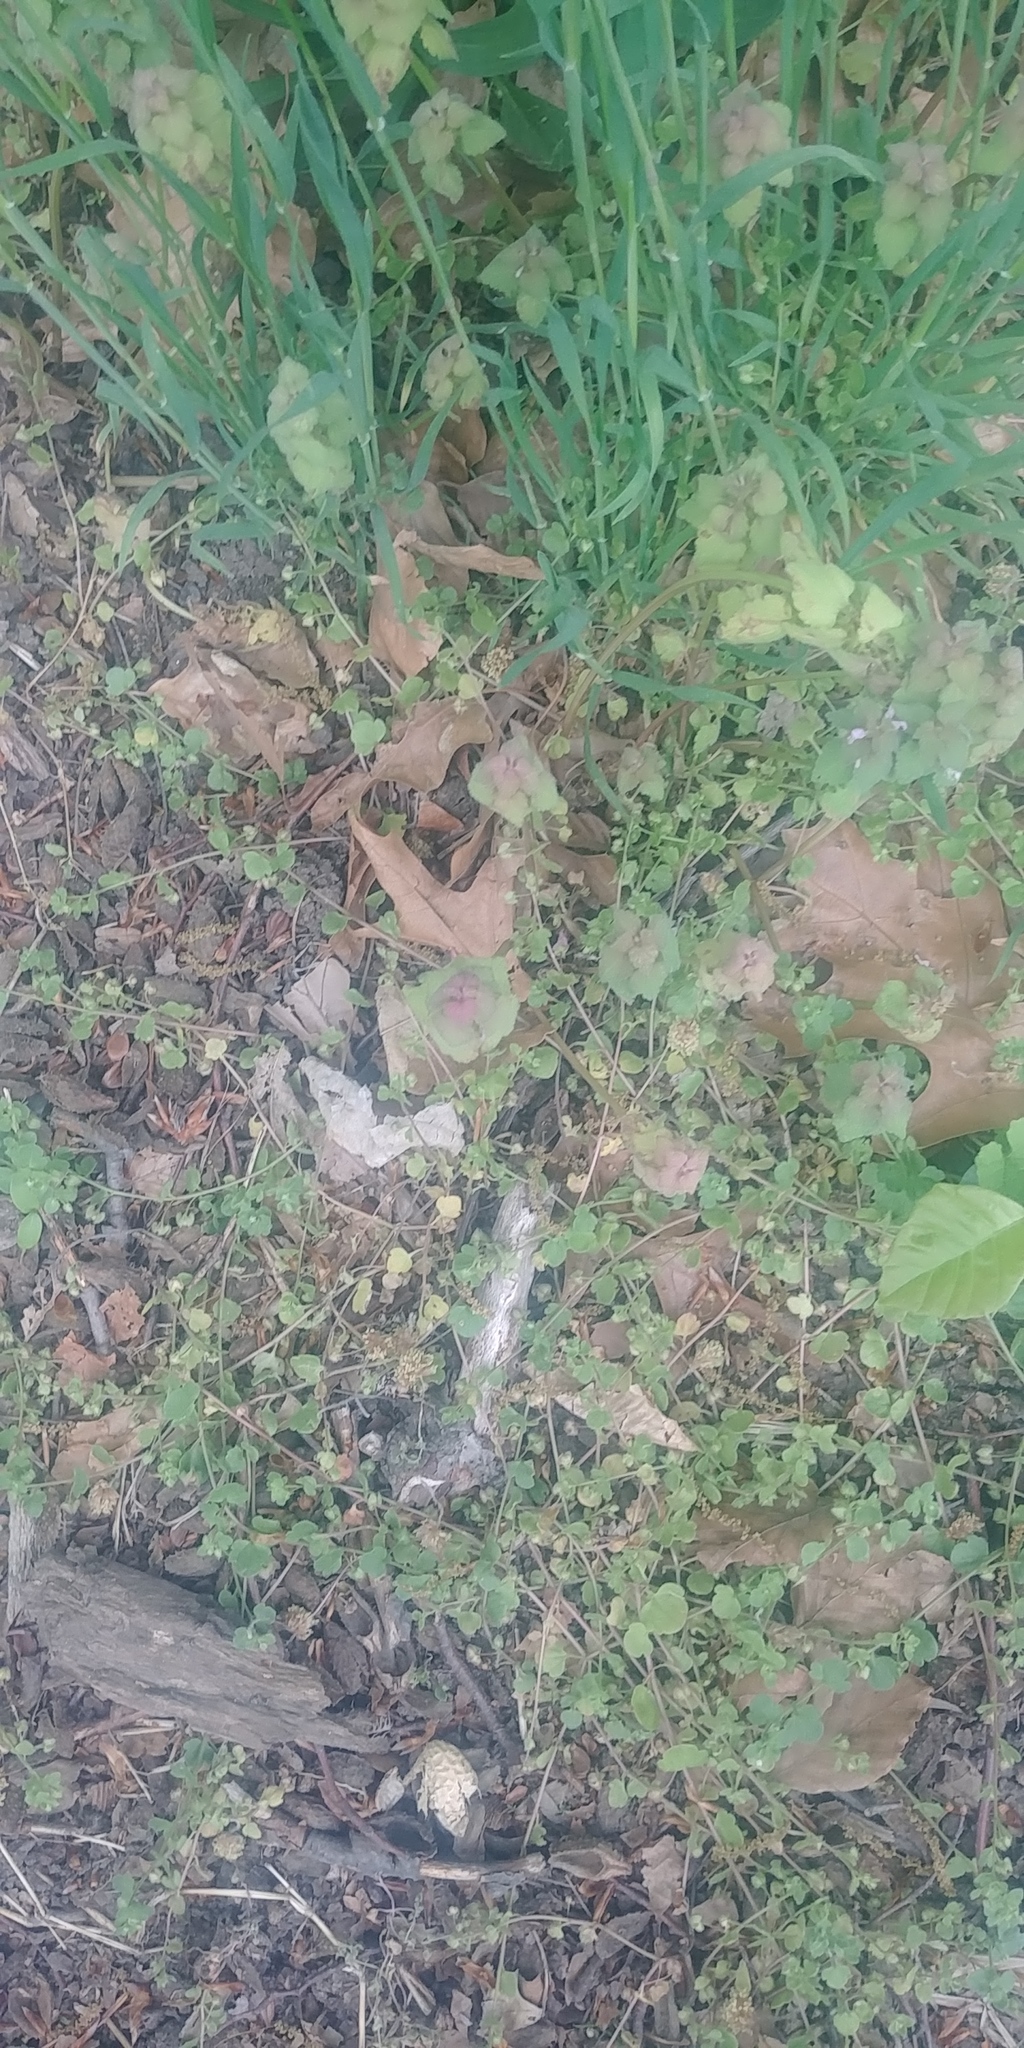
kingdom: Plantae
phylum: Tracheophyta
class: Magnoliopsida
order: Lamiales
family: Lamiaceae
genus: Lamium
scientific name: Lamium purpureum
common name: Red dead-nettle
